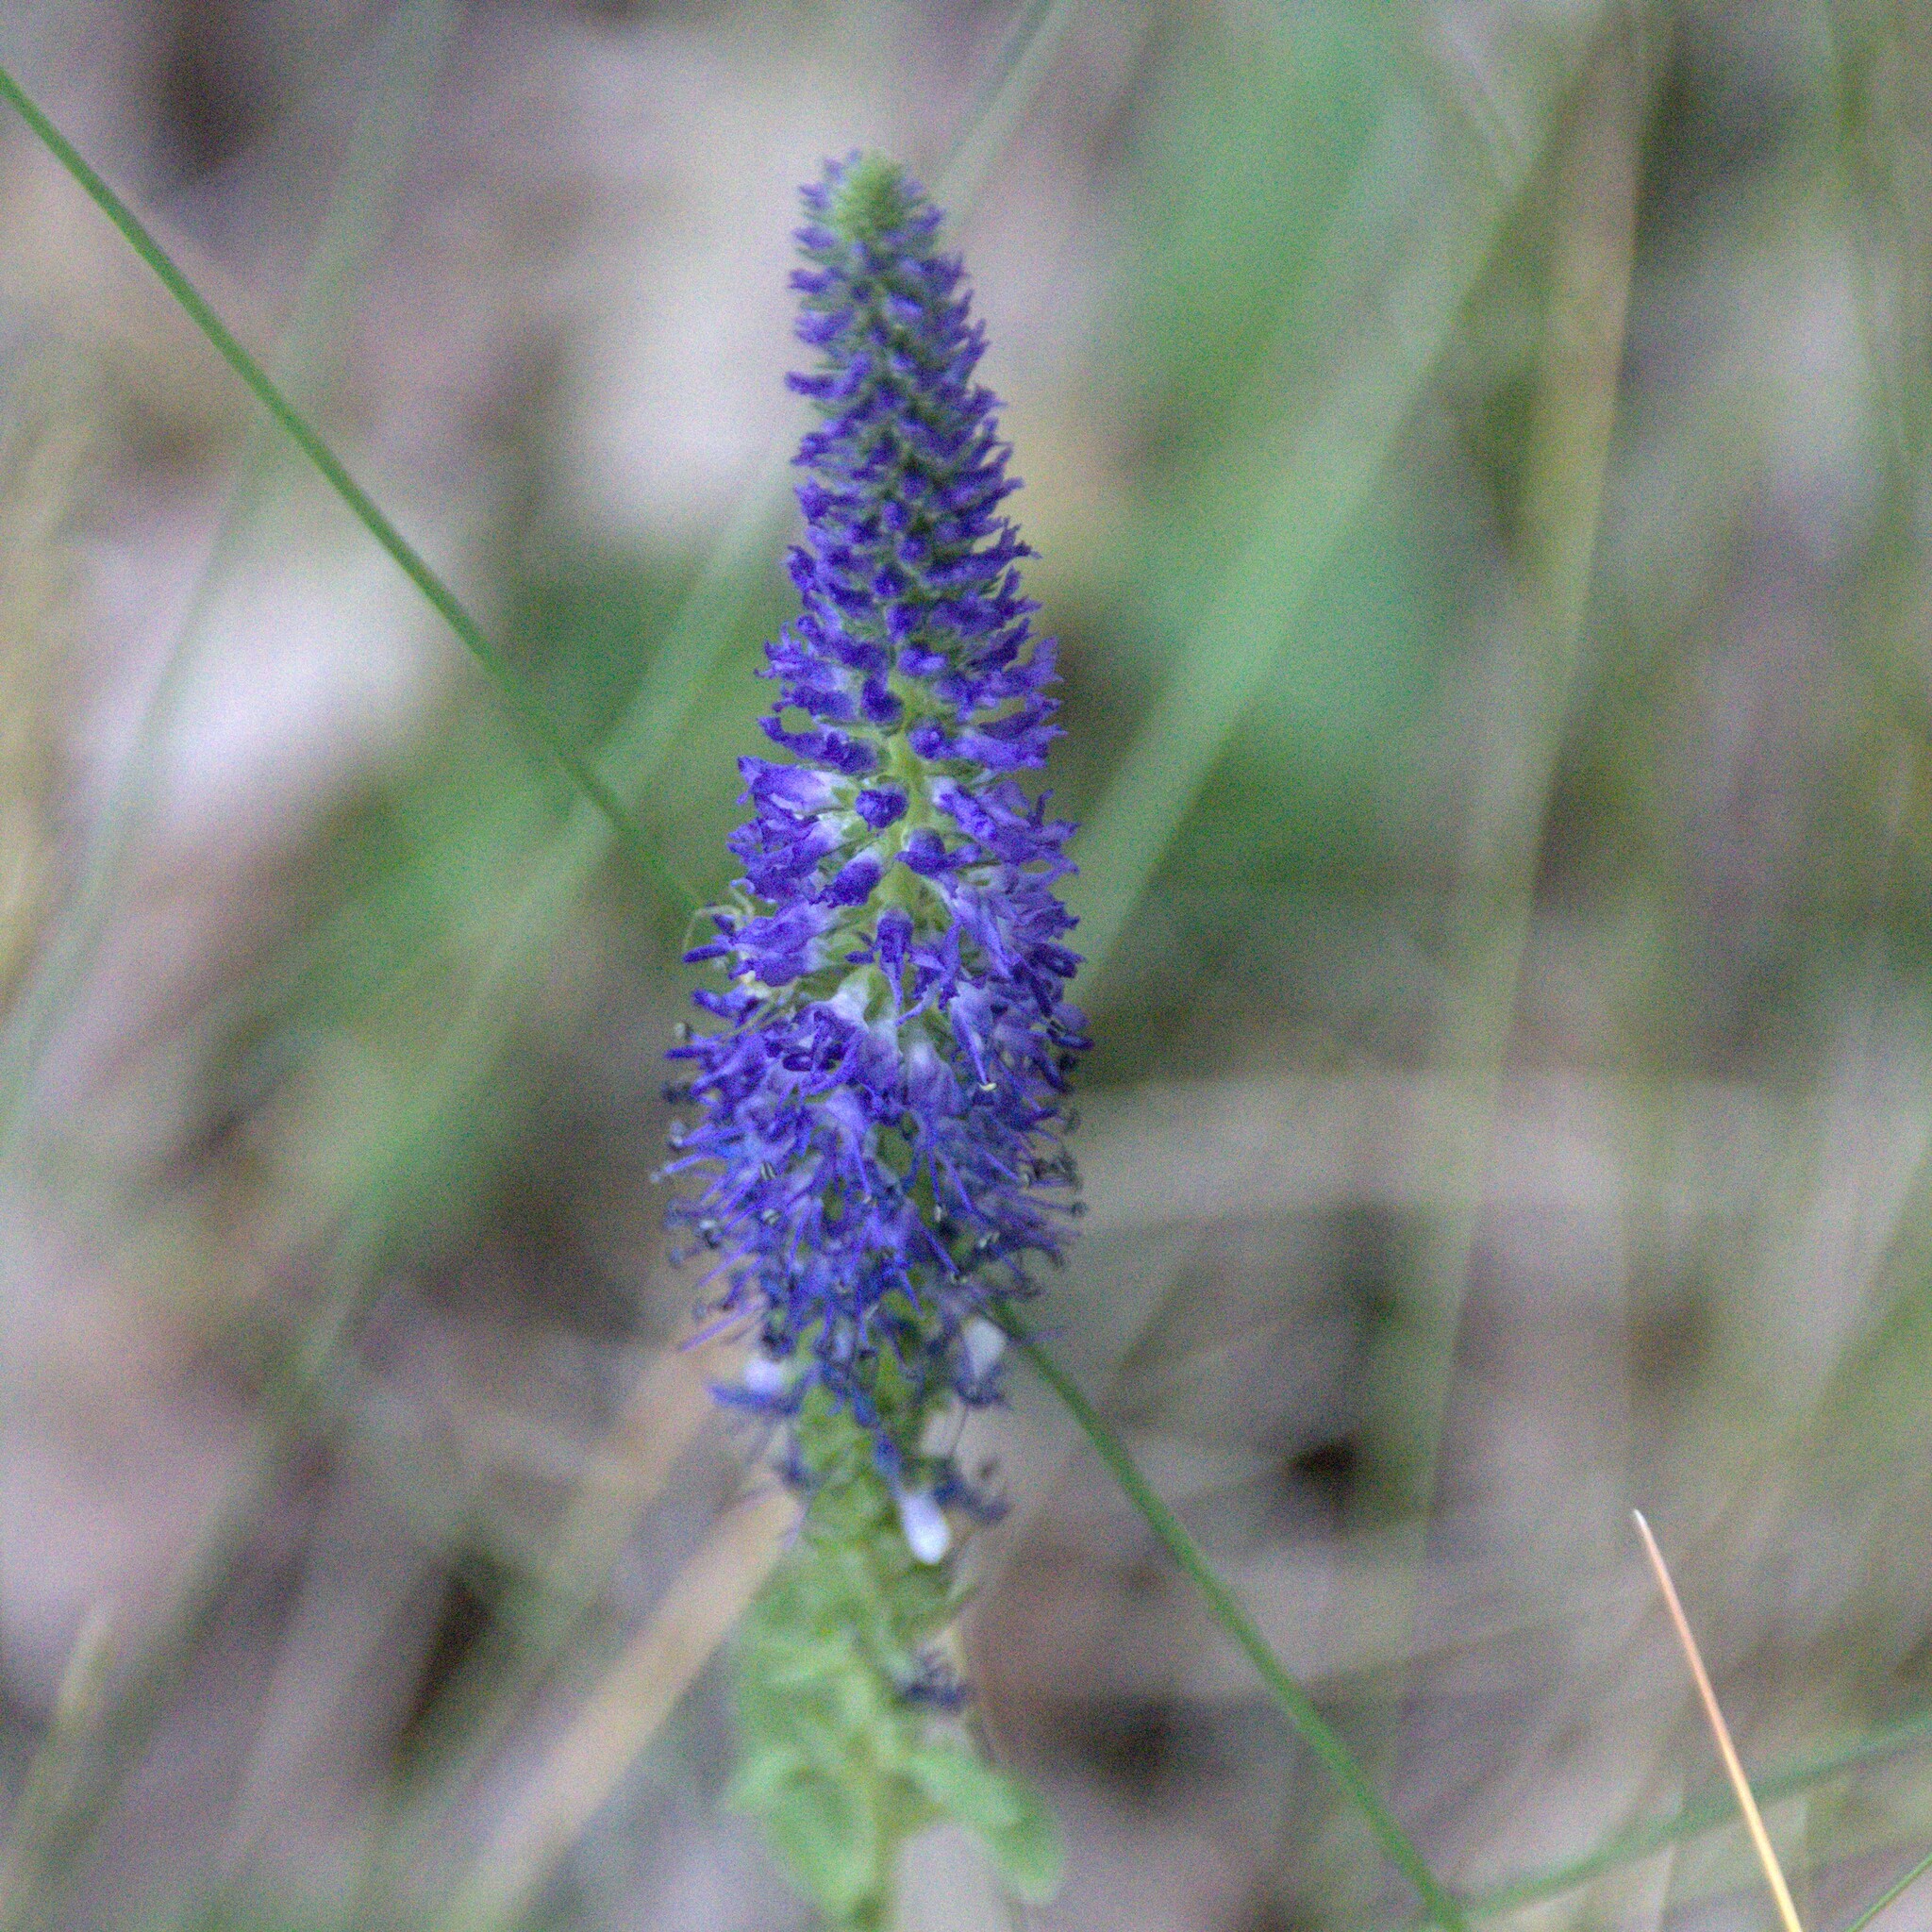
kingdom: Plantae
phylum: Tracheophyta
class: Magnoliopsida
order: Lamiales
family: Plantaginaceae
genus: Veronica
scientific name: Veronica spicata
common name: Spiked speedwell
